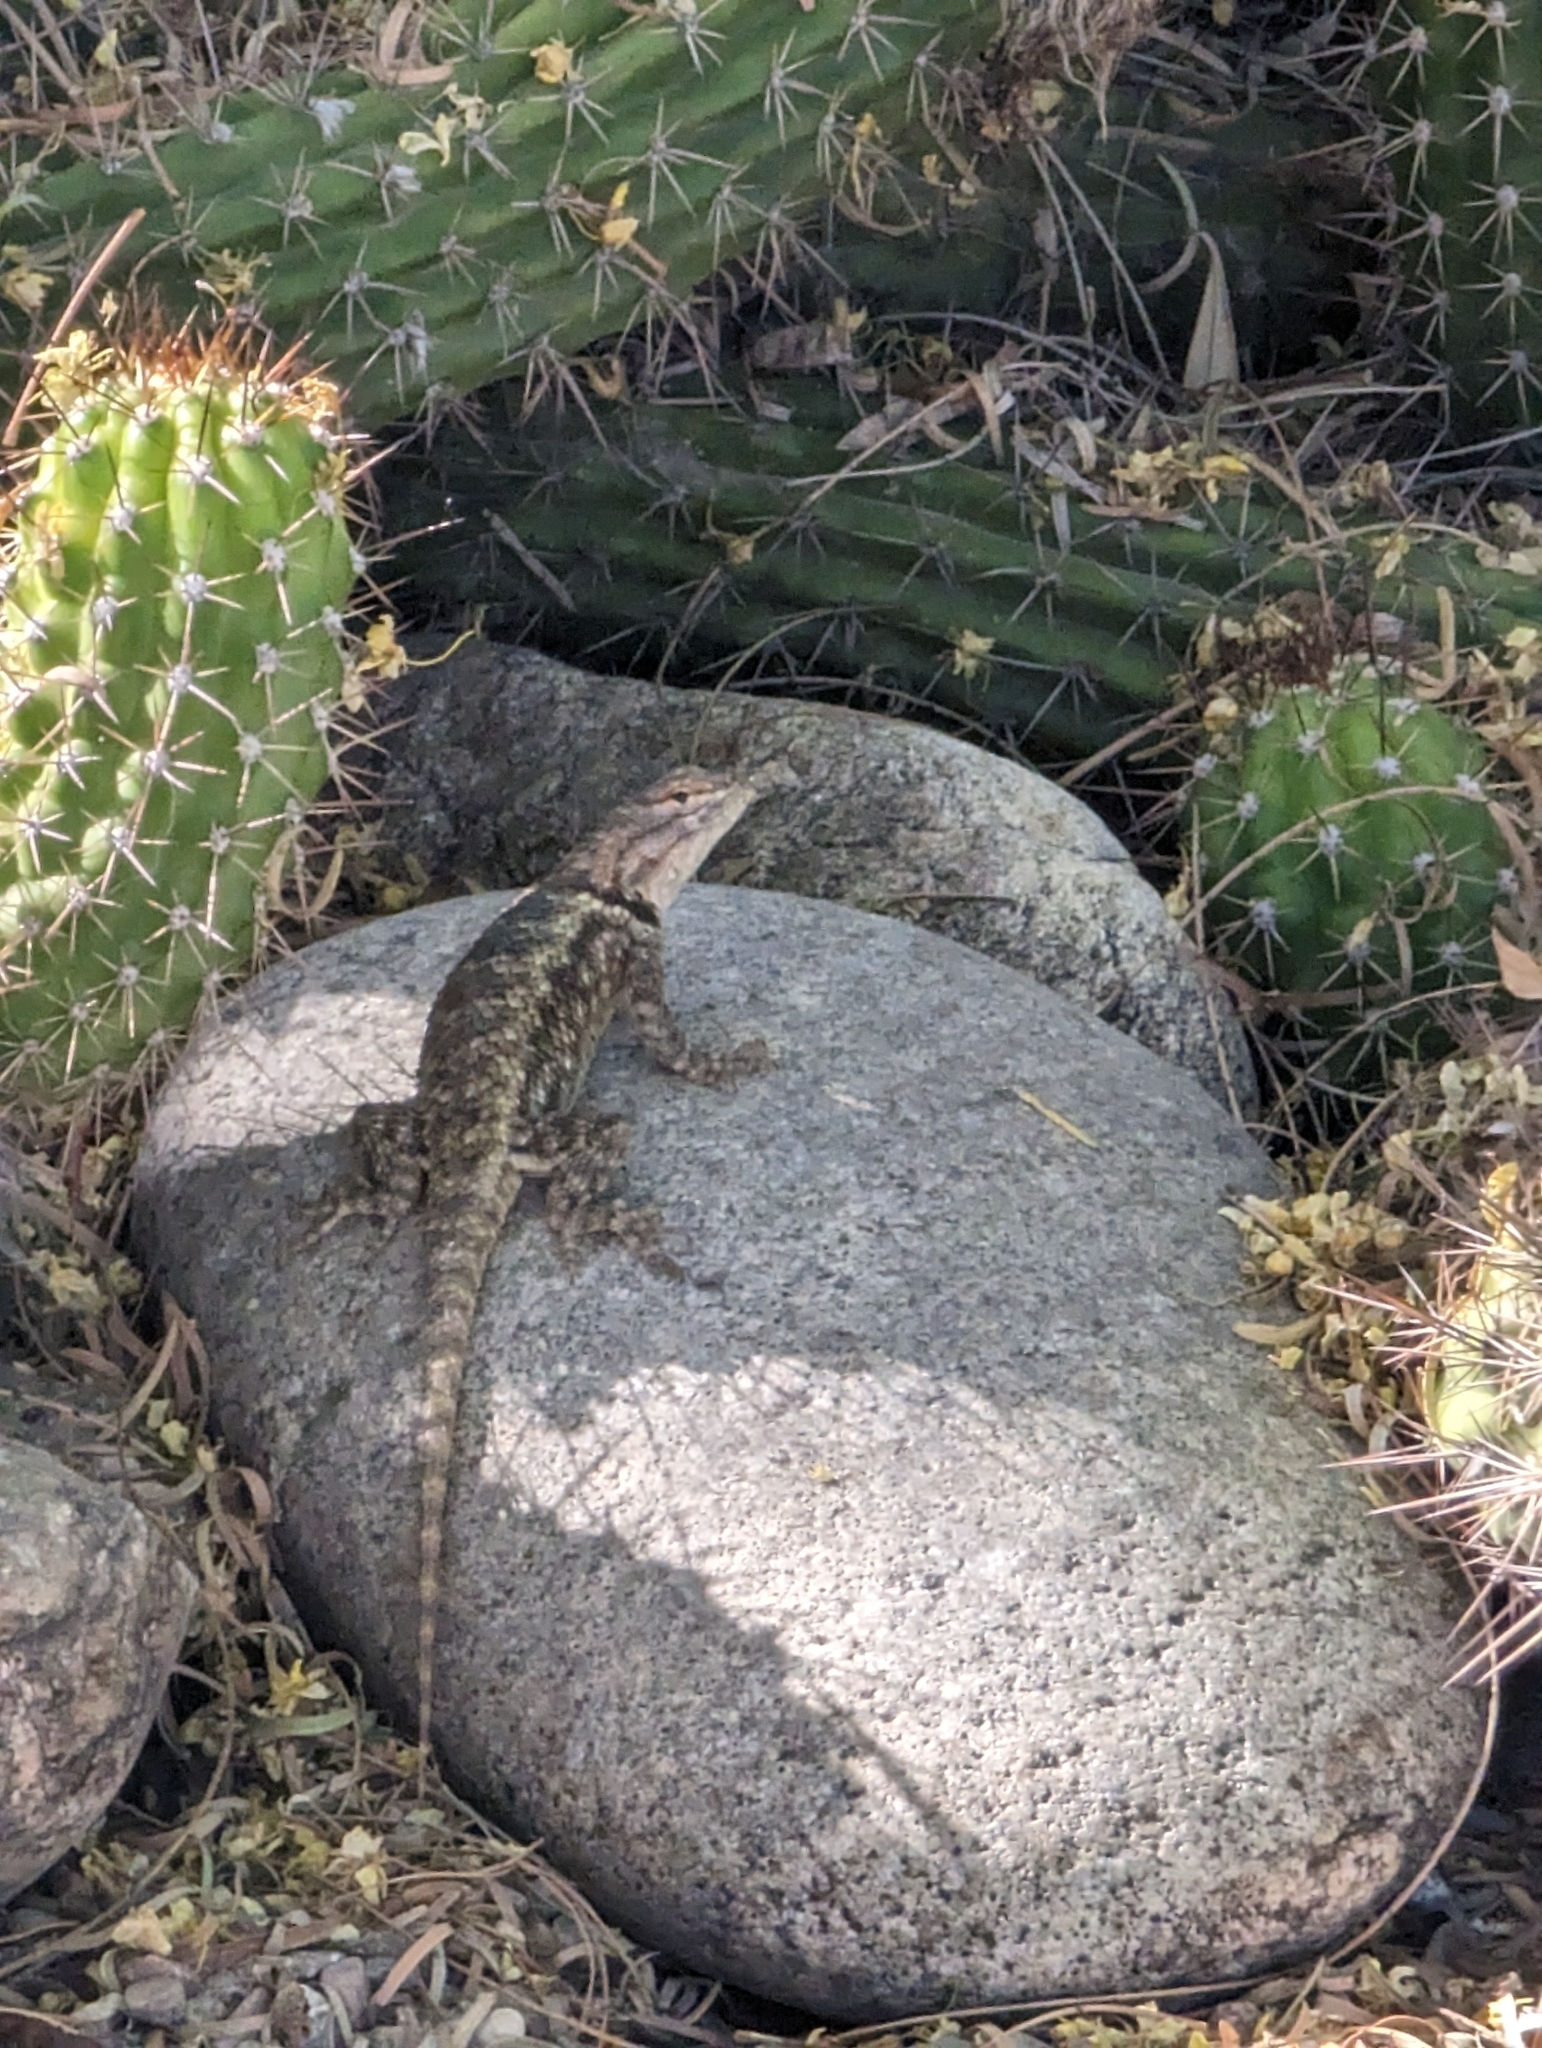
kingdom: Animalia
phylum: Chordata
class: Squamata
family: Phrynosomatidae
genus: Sceloporus
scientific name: Sceloporus magister
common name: Desert spiny lizard
